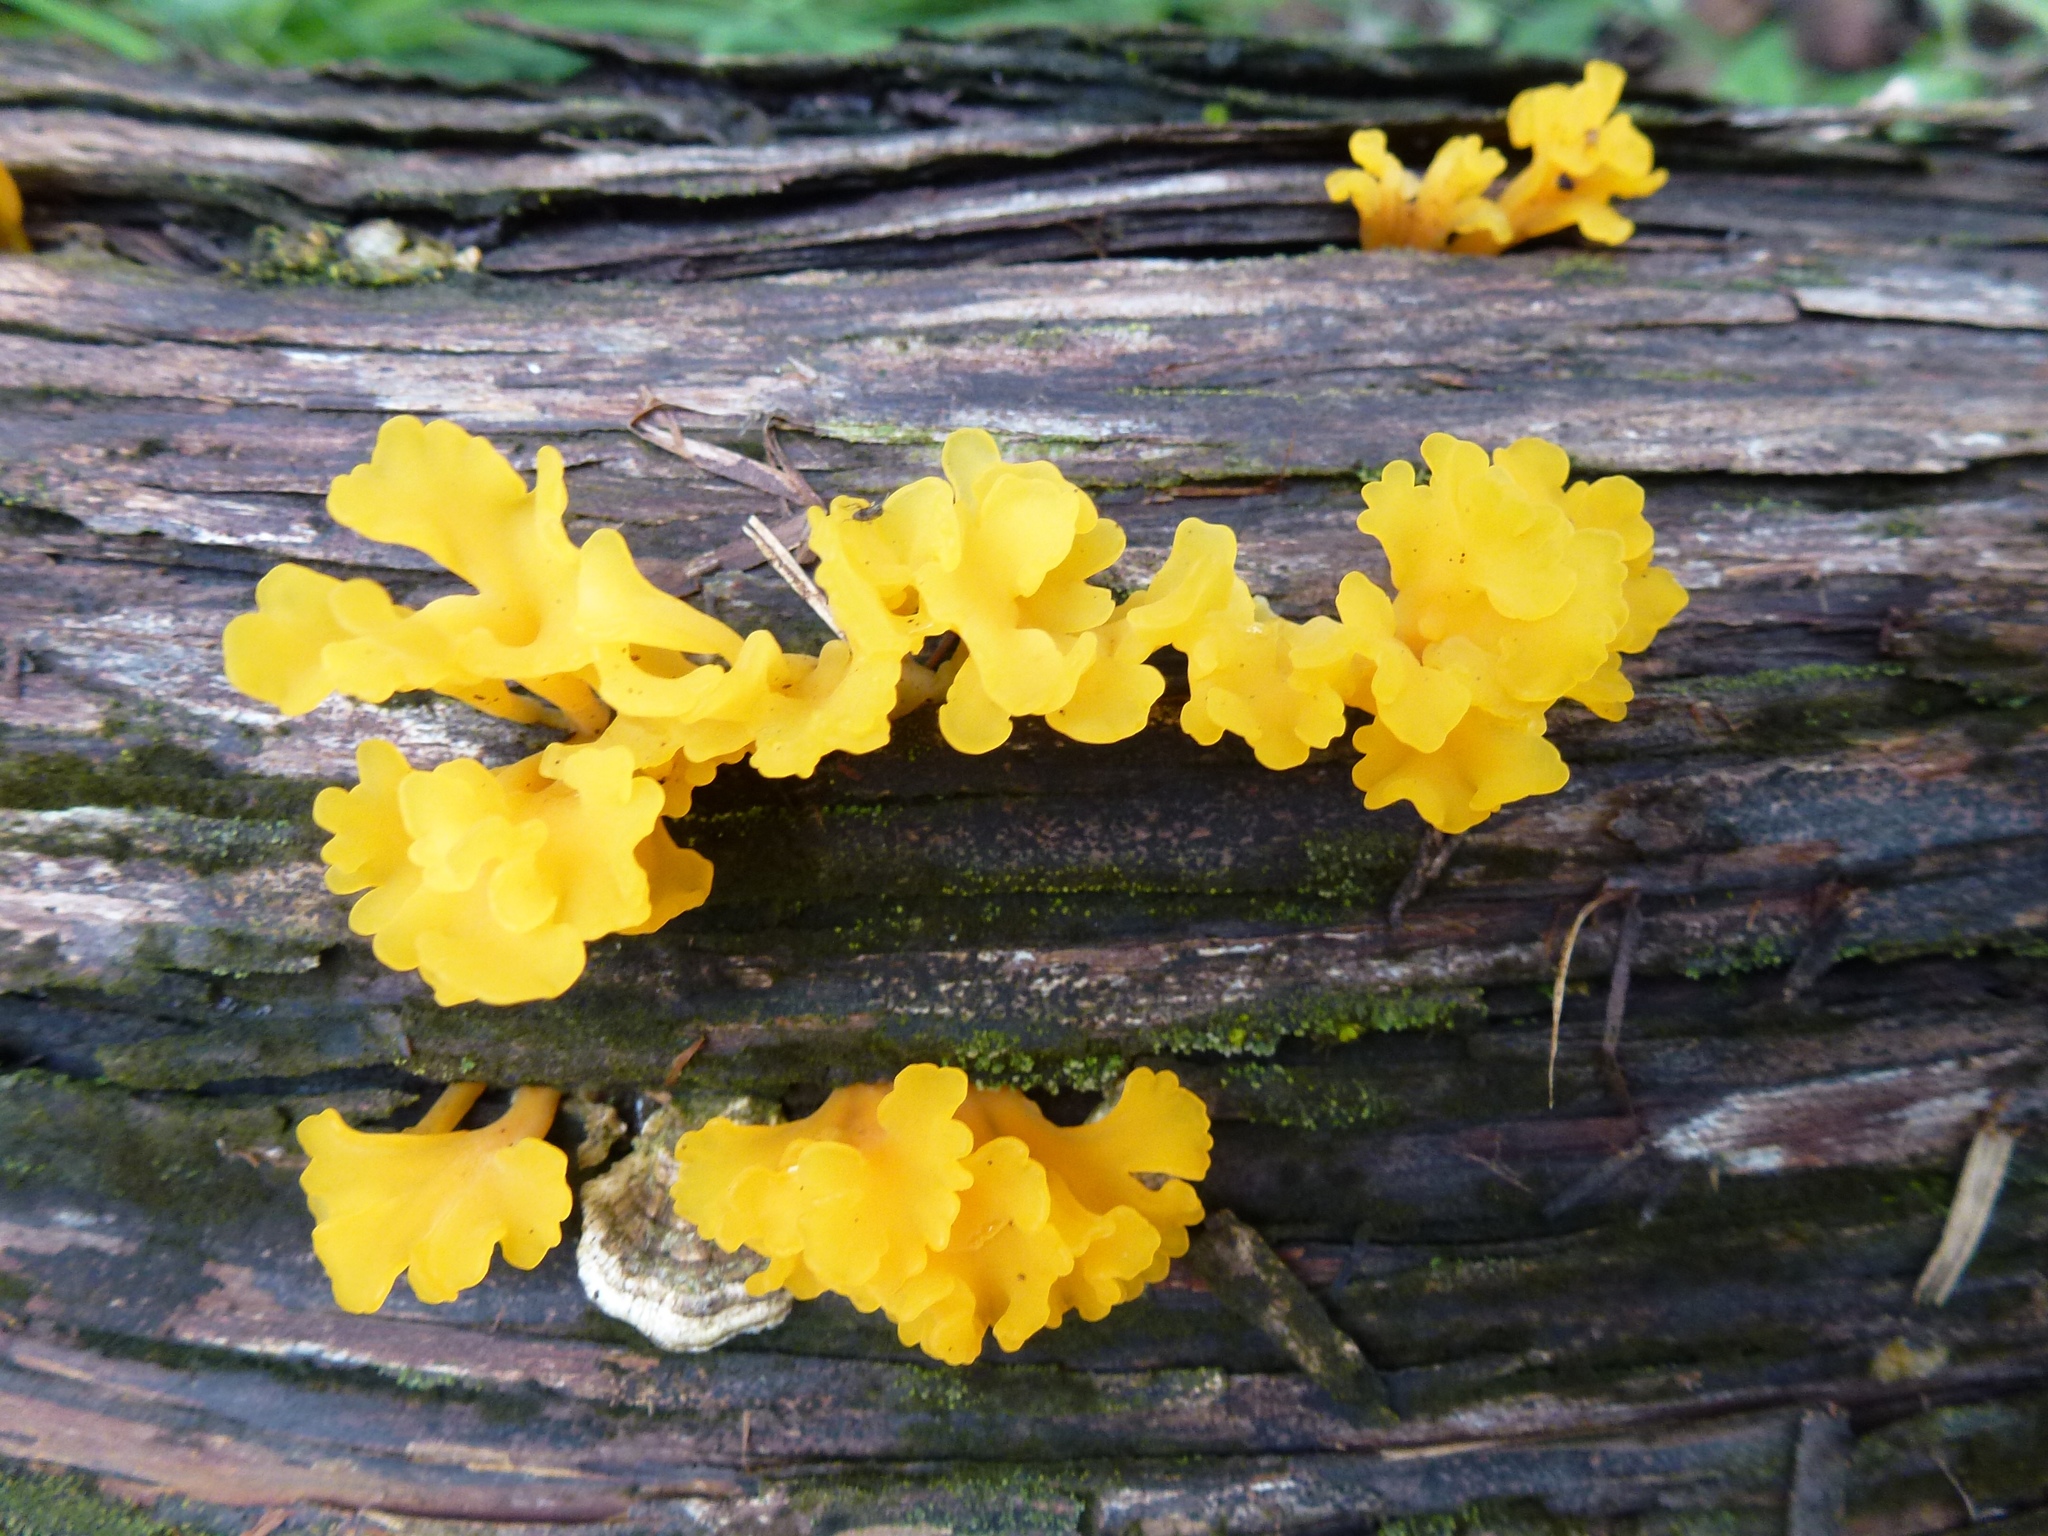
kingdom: Fungi
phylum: Basidiomycota
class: Dacrymycetes
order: Dacrymycetales
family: Dacrymycetaceae
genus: Dacrymyces
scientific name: Dacrymyces spathularius
